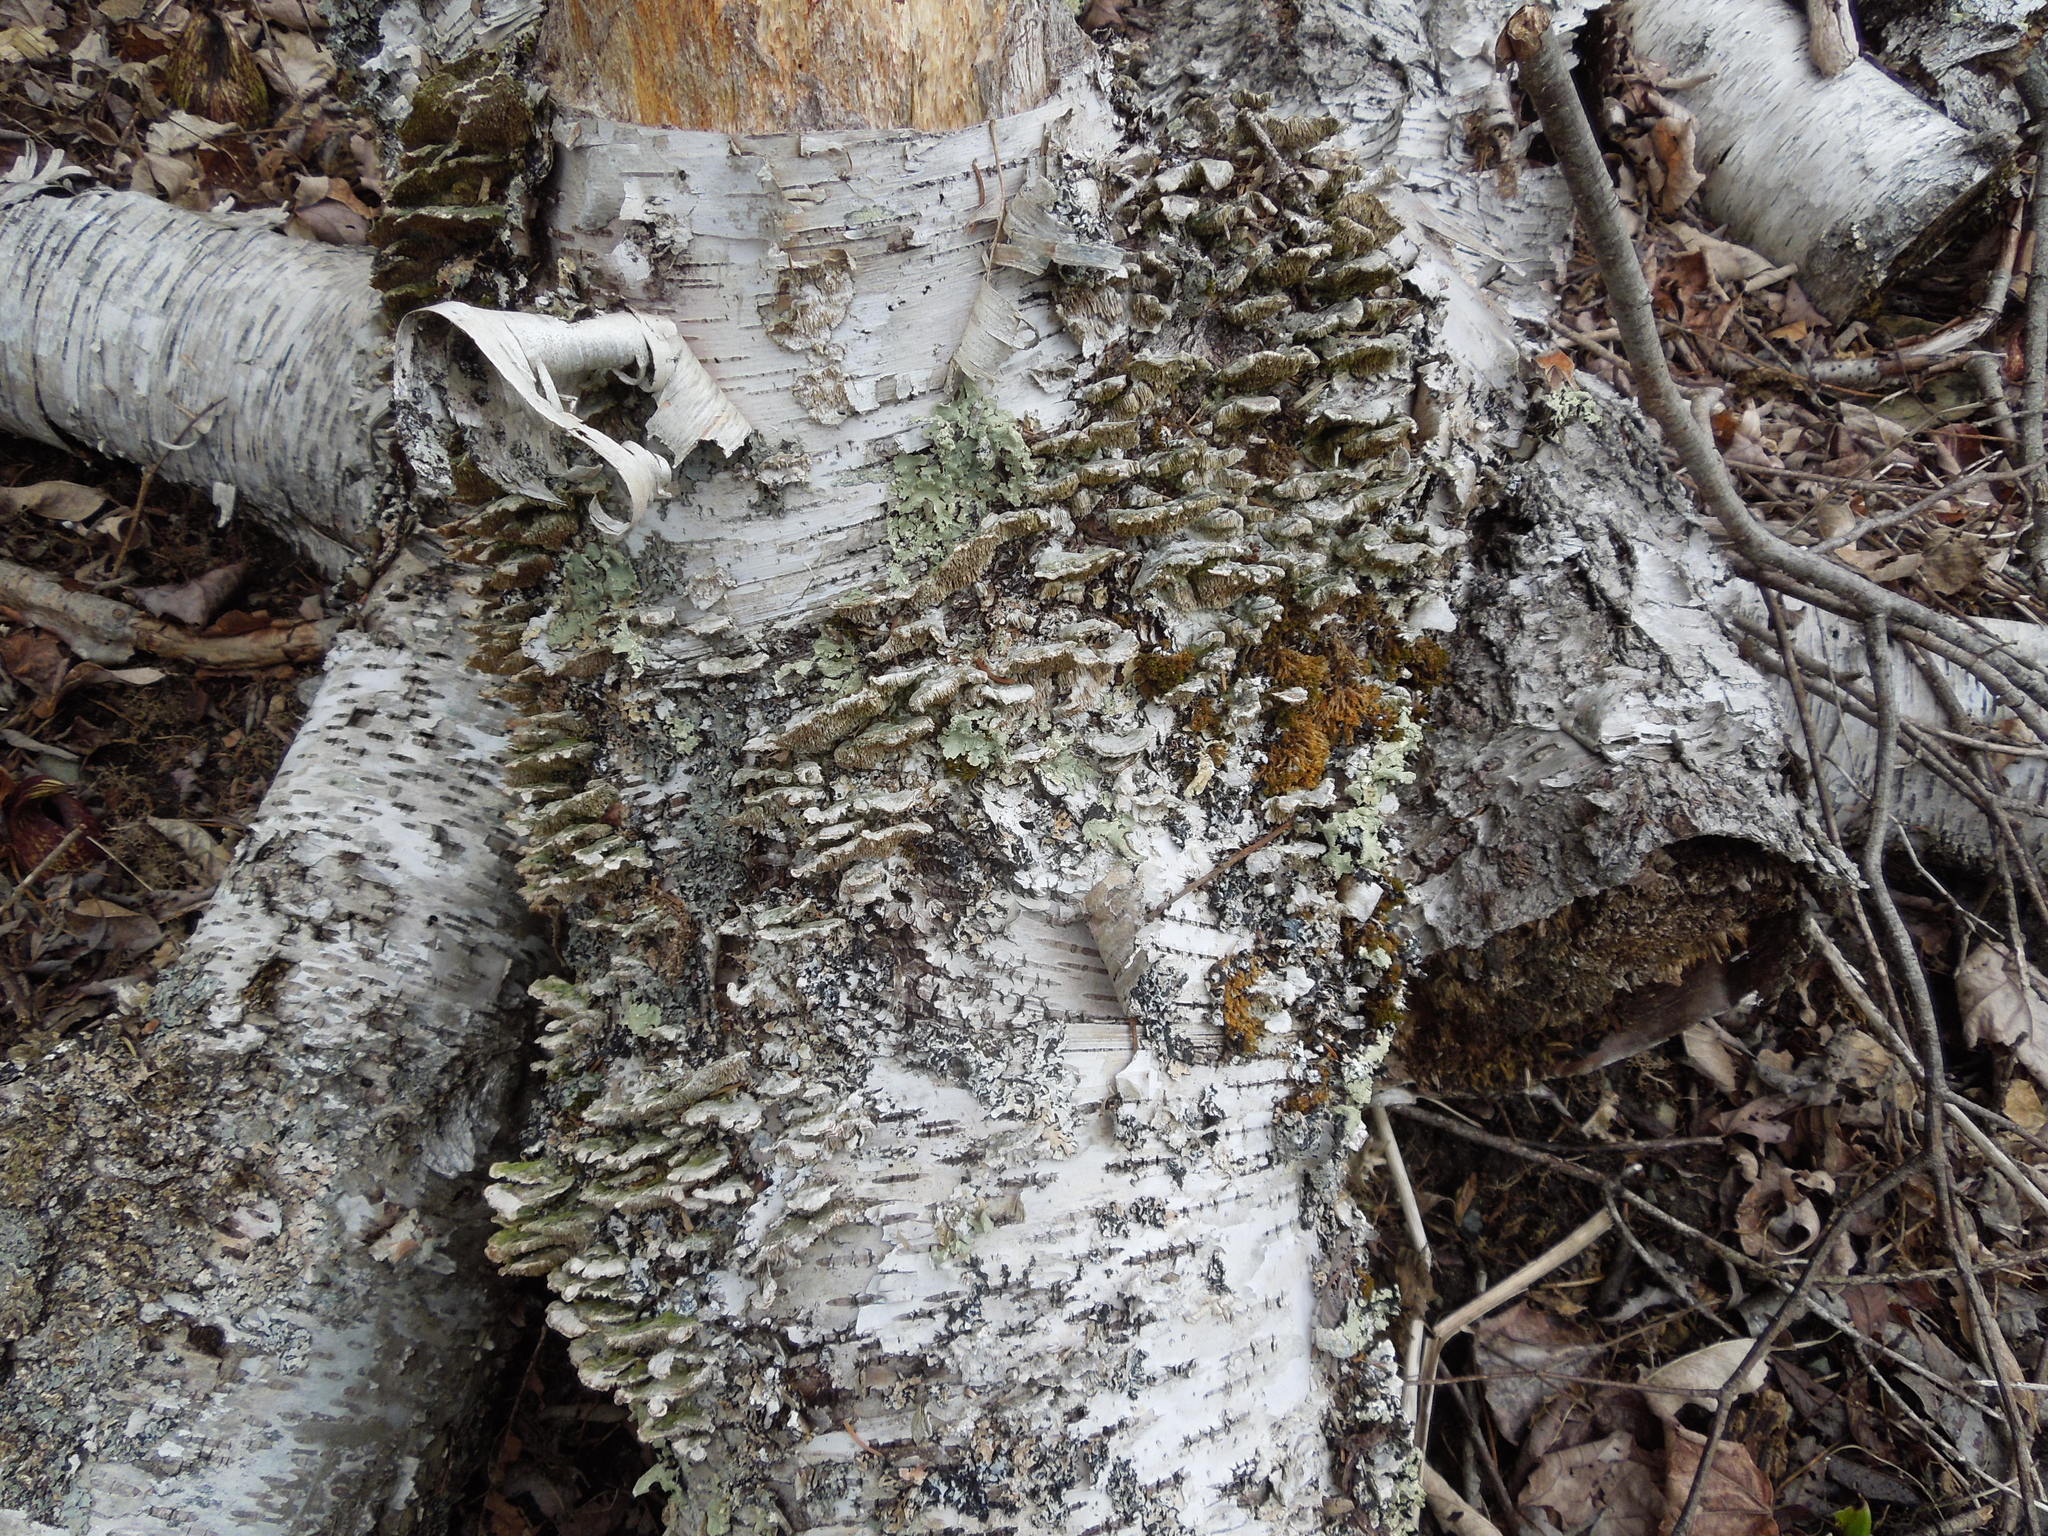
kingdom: Fungi
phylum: Basidiomycota
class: Agaricomycetes
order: Polyporales
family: Cerrenaceae
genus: Cerrena
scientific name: Cerrena unicolor
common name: Mossy maze polypore
